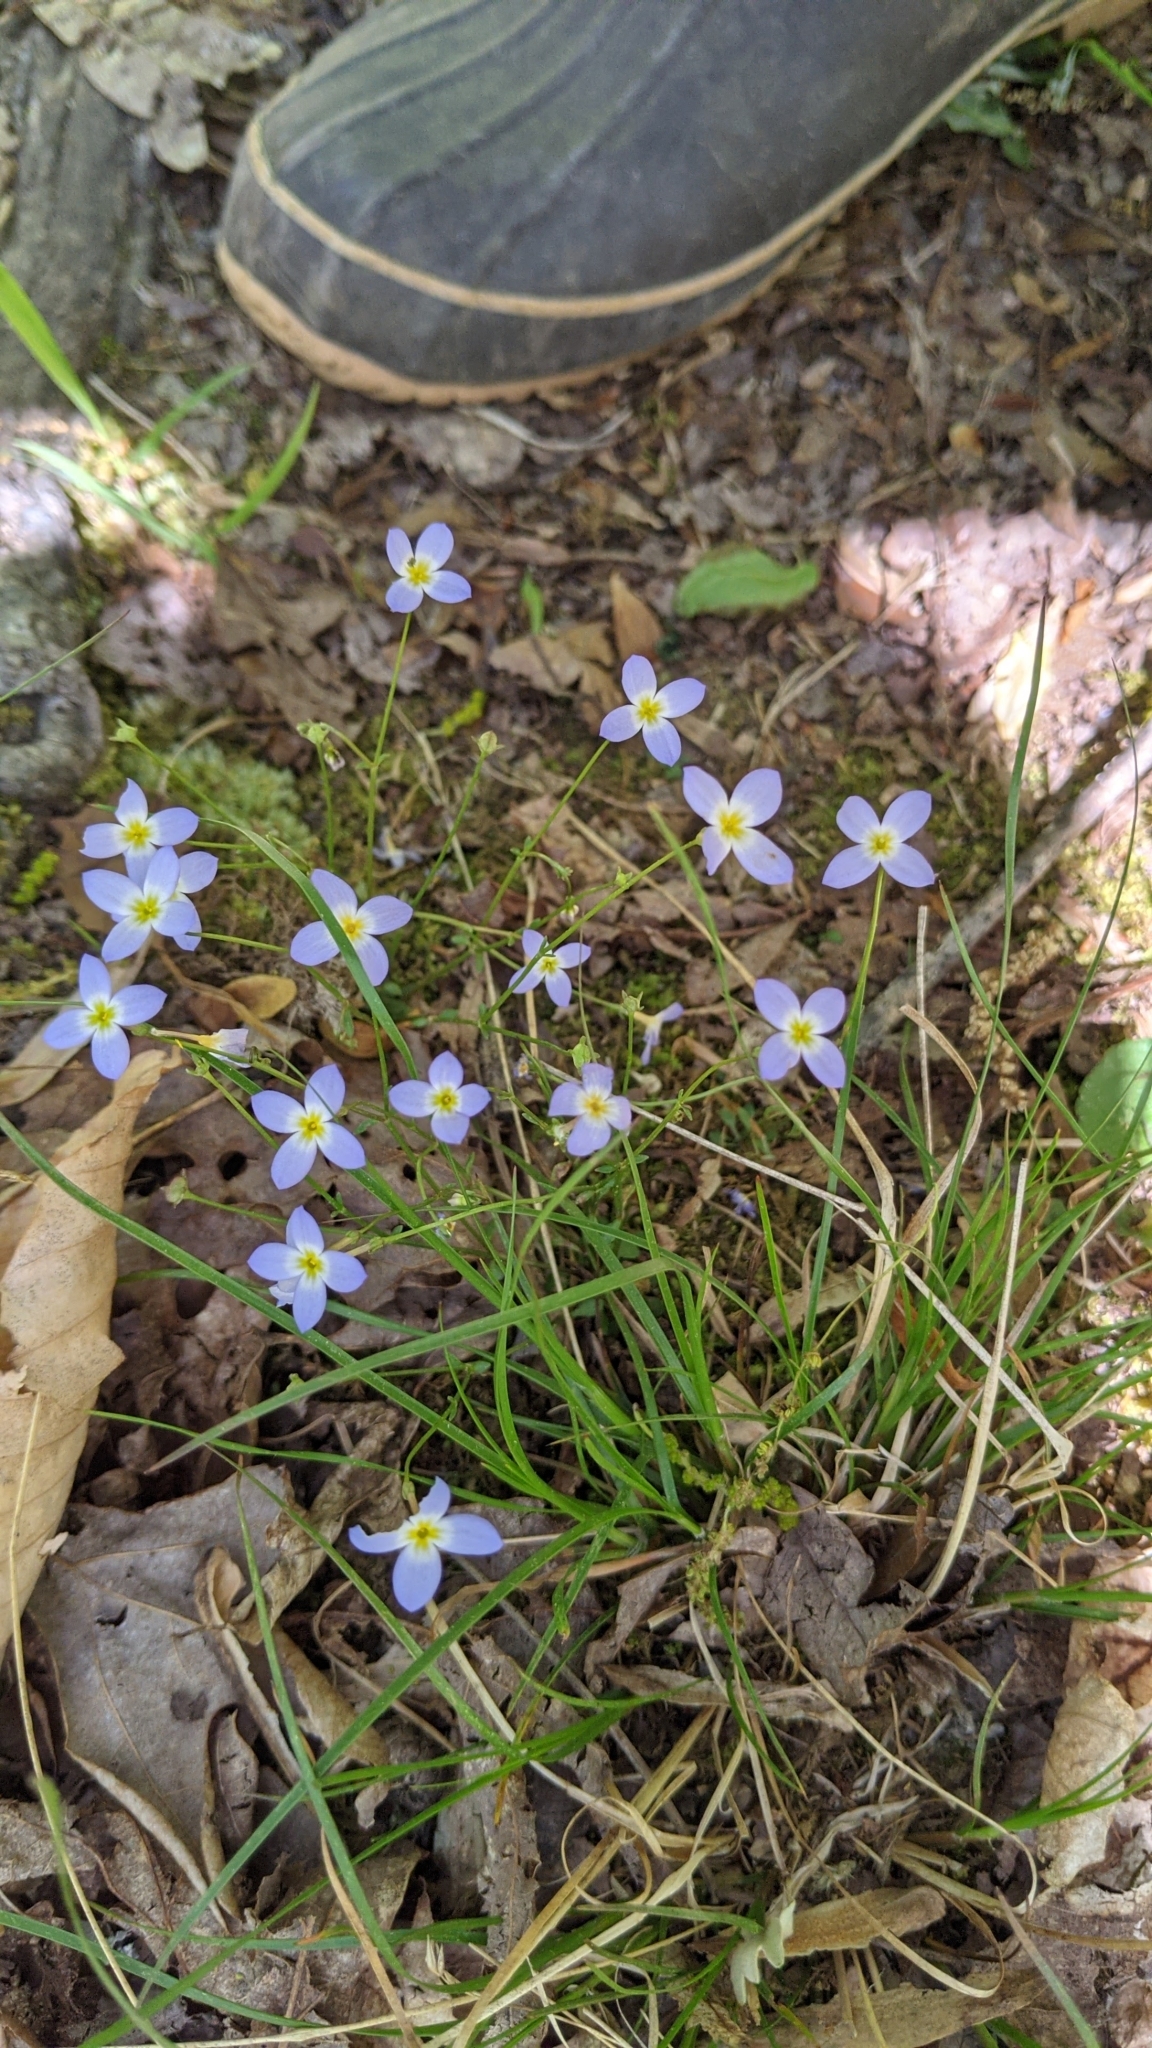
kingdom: Plantae
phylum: Tracheophyta
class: Magnoliopsida
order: Gentianales
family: Rubiaceae
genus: Houstonia
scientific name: Houstonia caerulea
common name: Bluets
